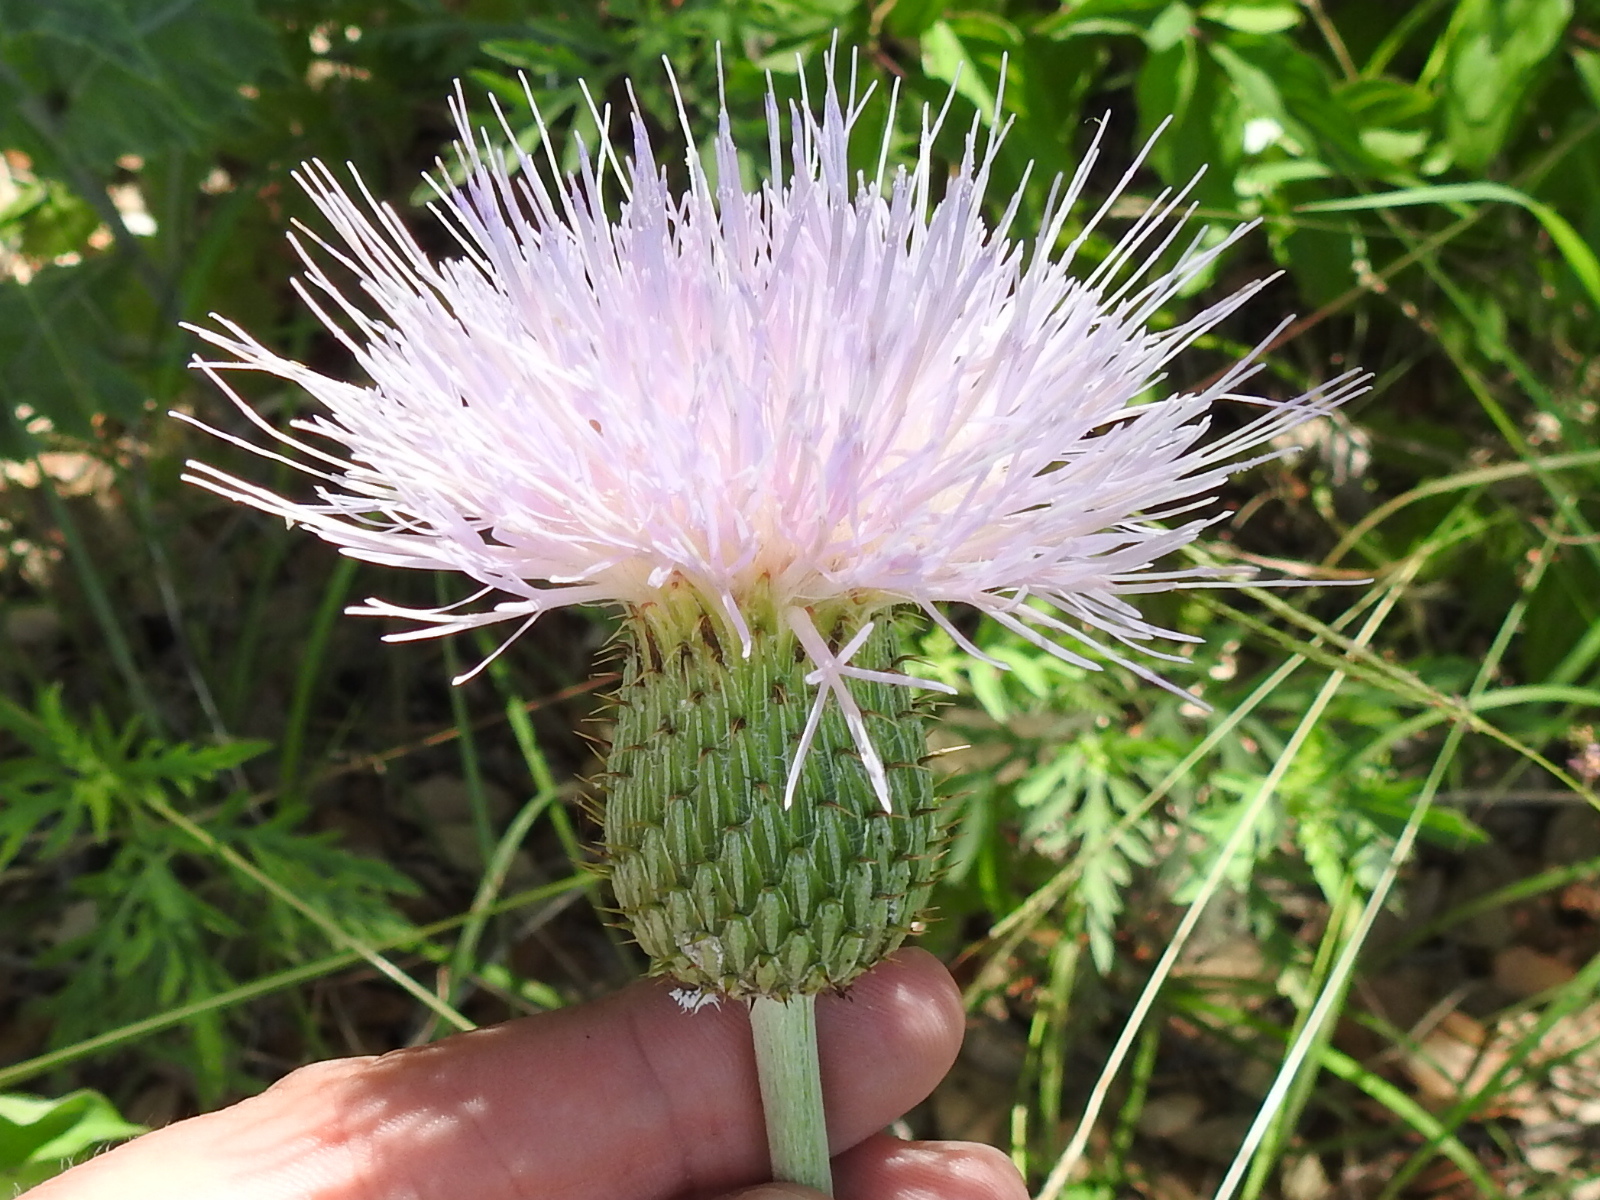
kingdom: Plantae
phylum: Tracheophyta
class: Magnoliopsida
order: Asterales
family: Asteraceae
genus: Cirsium
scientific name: Cirsium undulatum
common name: Pasture thistle
